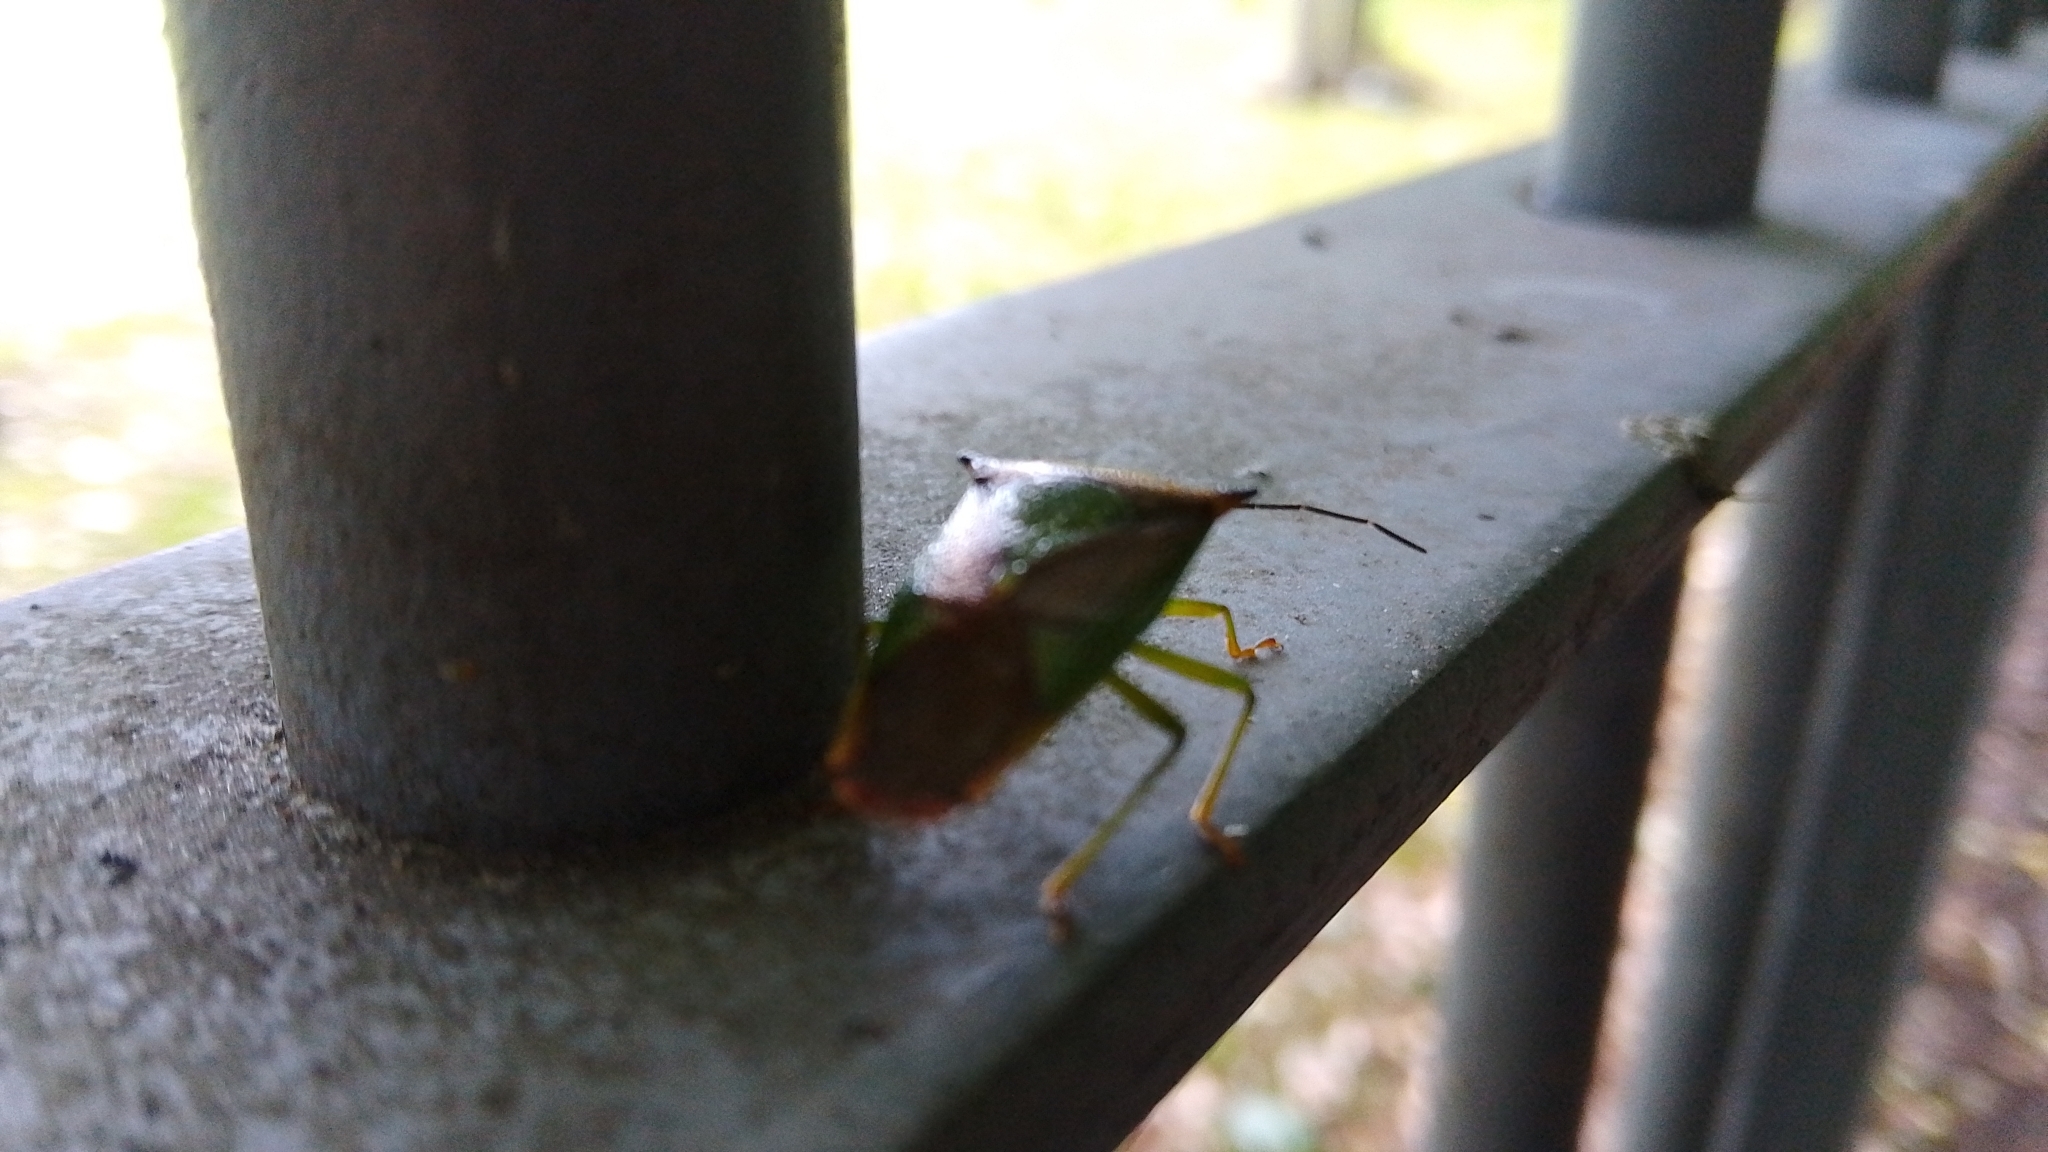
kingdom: Animalia
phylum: Arthropoda
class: Insecta
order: Hemiptera
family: Acanthosomatidae
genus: Acanthosoma
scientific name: Acanthosoma haemorrhoidale
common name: Hawthorn shieldbug
